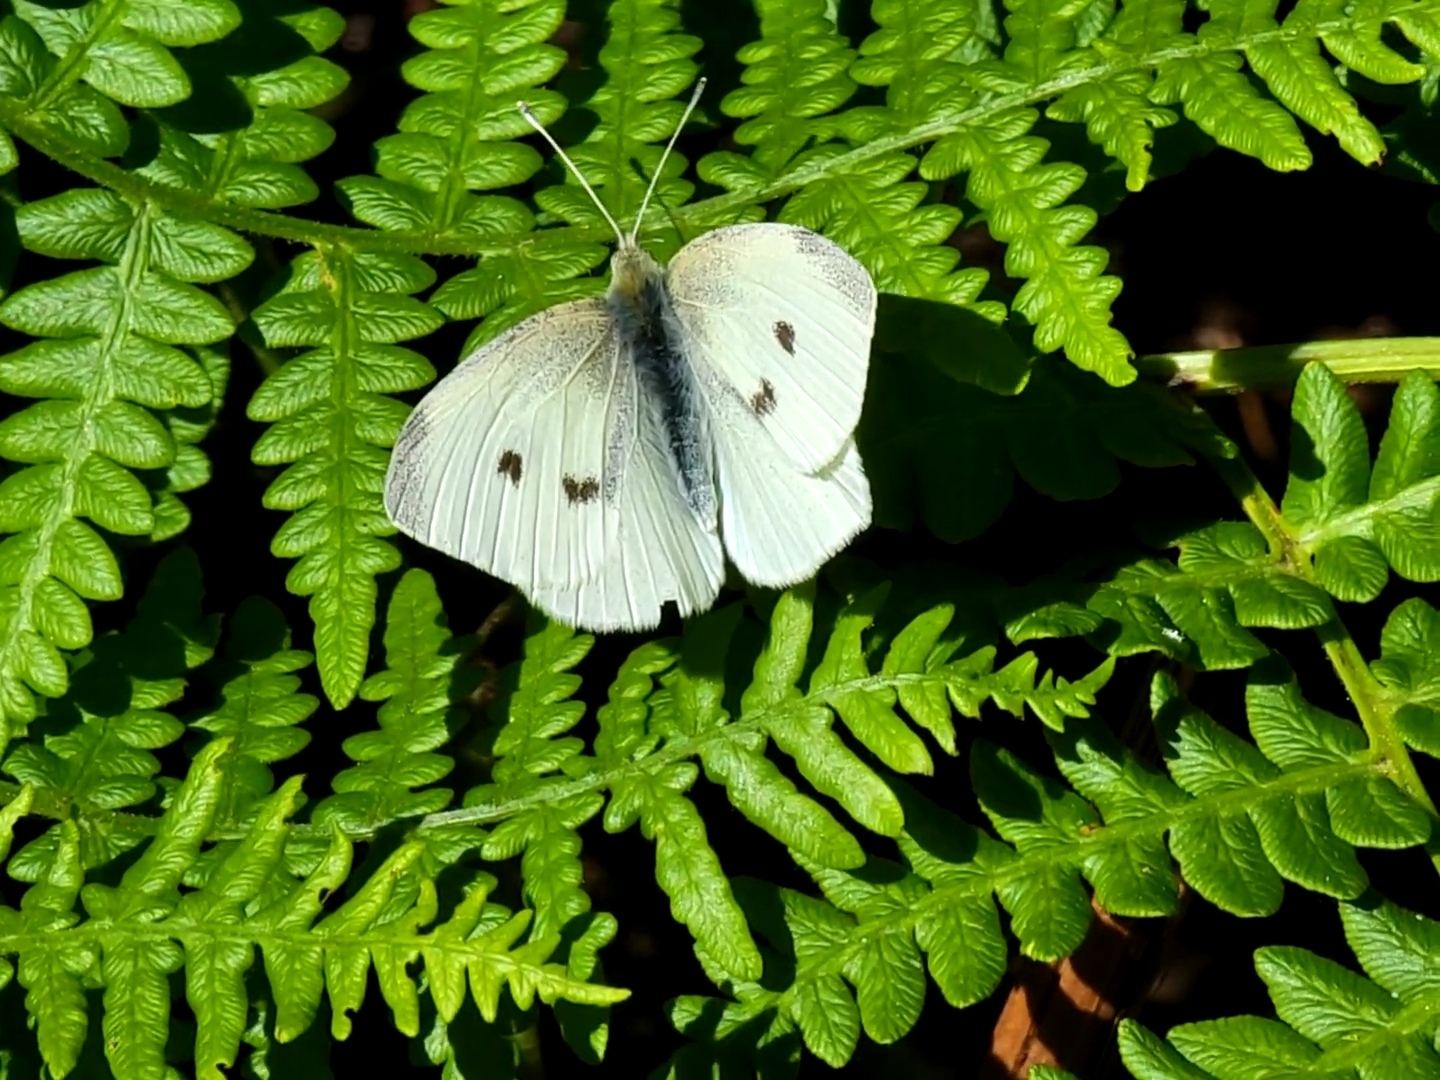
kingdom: Animalia
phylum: Arthropoda
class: Insecta
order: Lepidoptera
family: Pieridae
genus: Pieris
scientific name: Pieris rapae
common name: Small white
